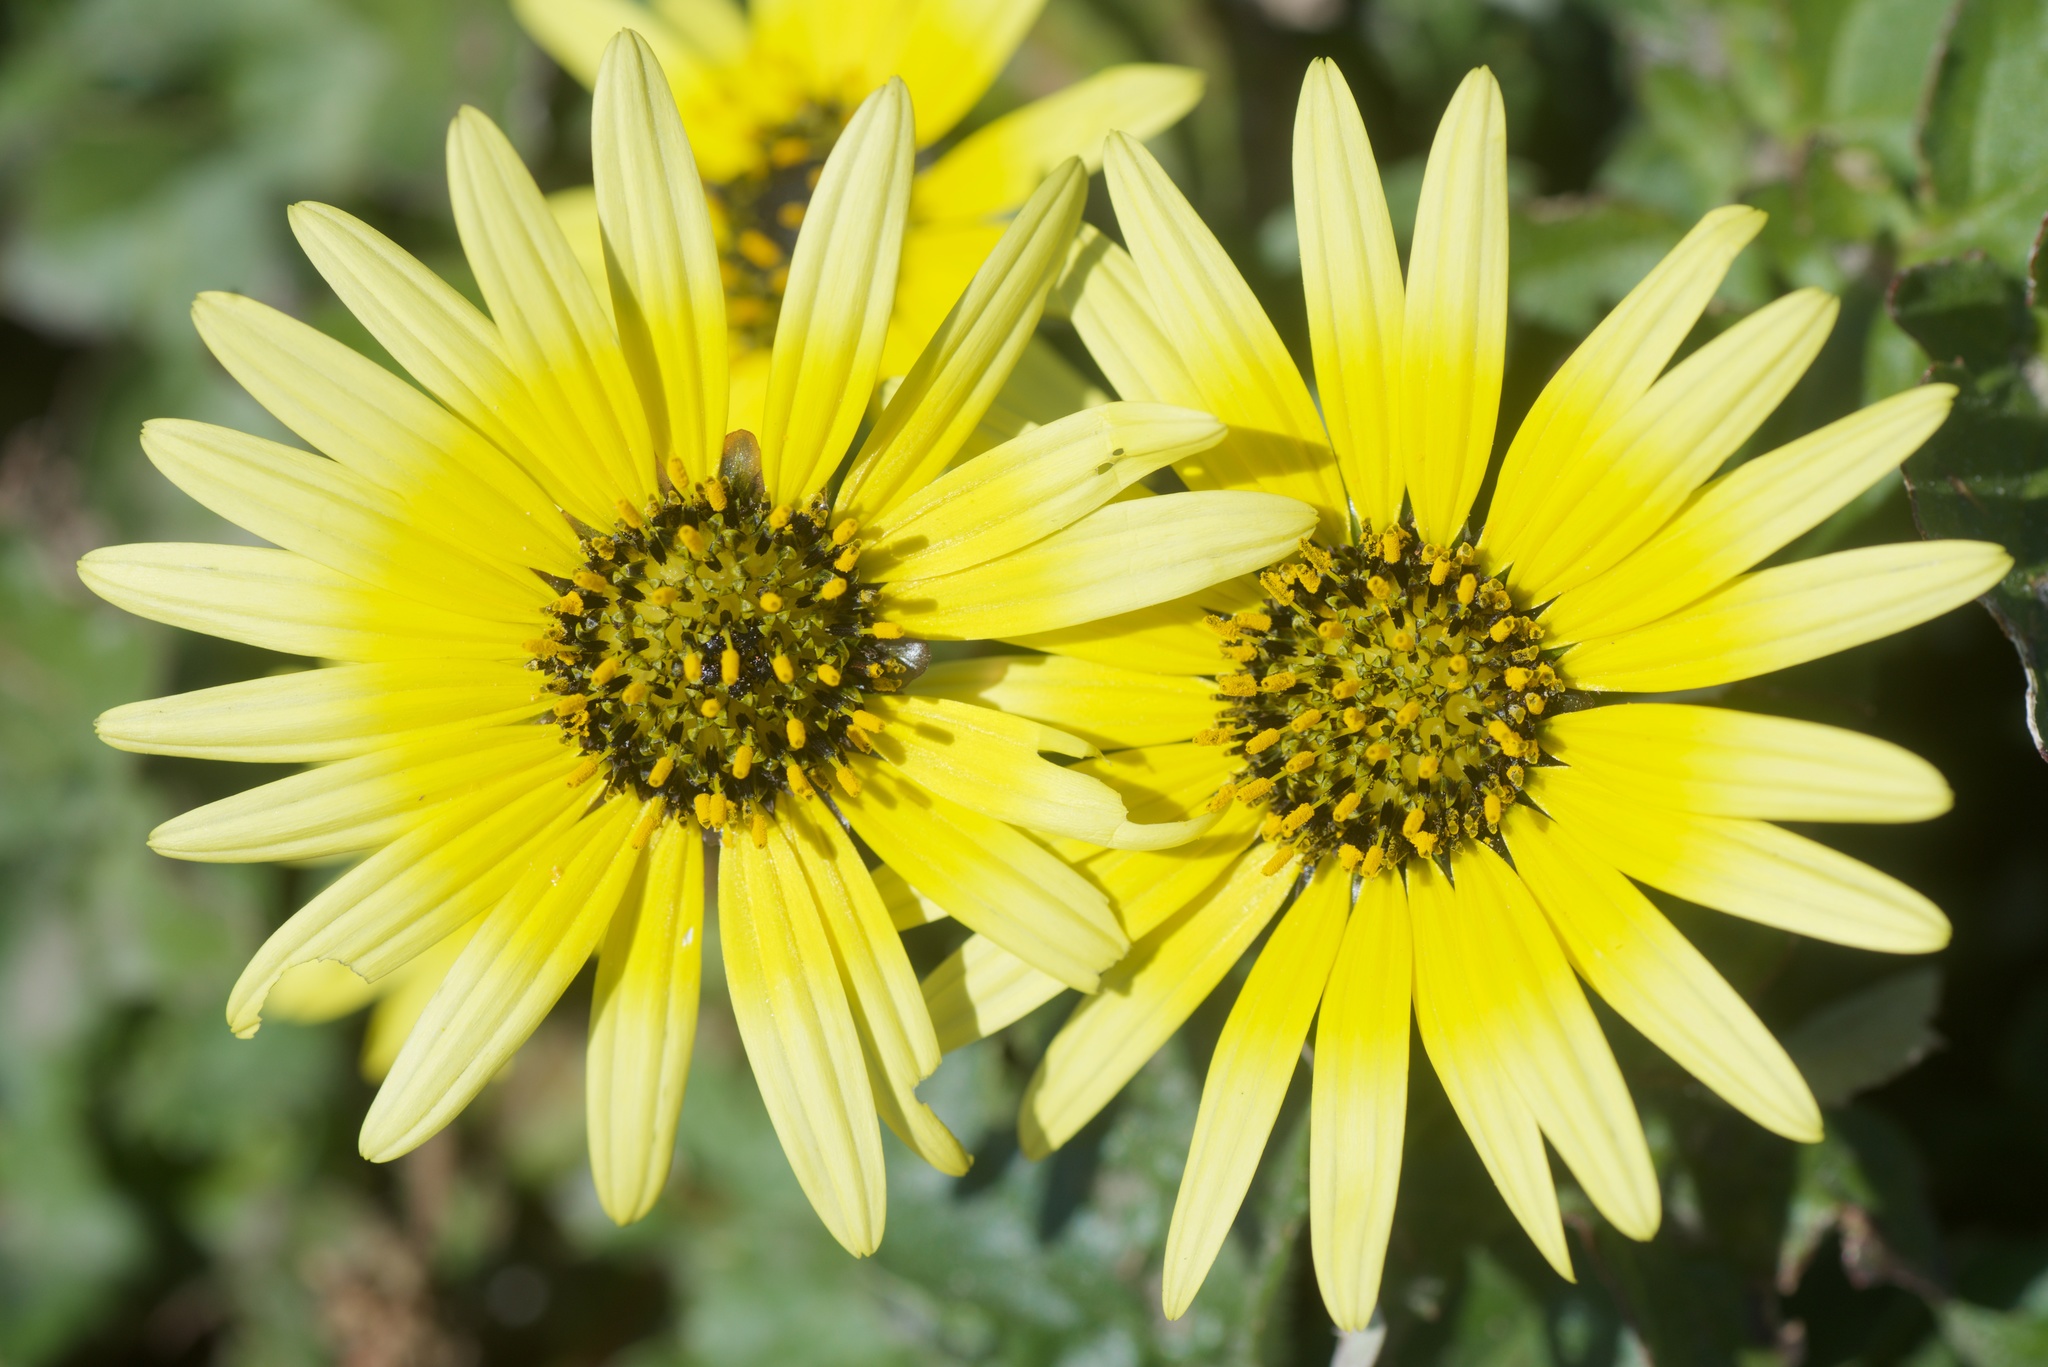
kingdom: Plantae
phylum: Tracheophyta
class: Magnoliopsida
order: Asterales
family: Asteraceae
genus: Arctotheca
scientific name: Arctotheca calendula
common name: Capeweed
